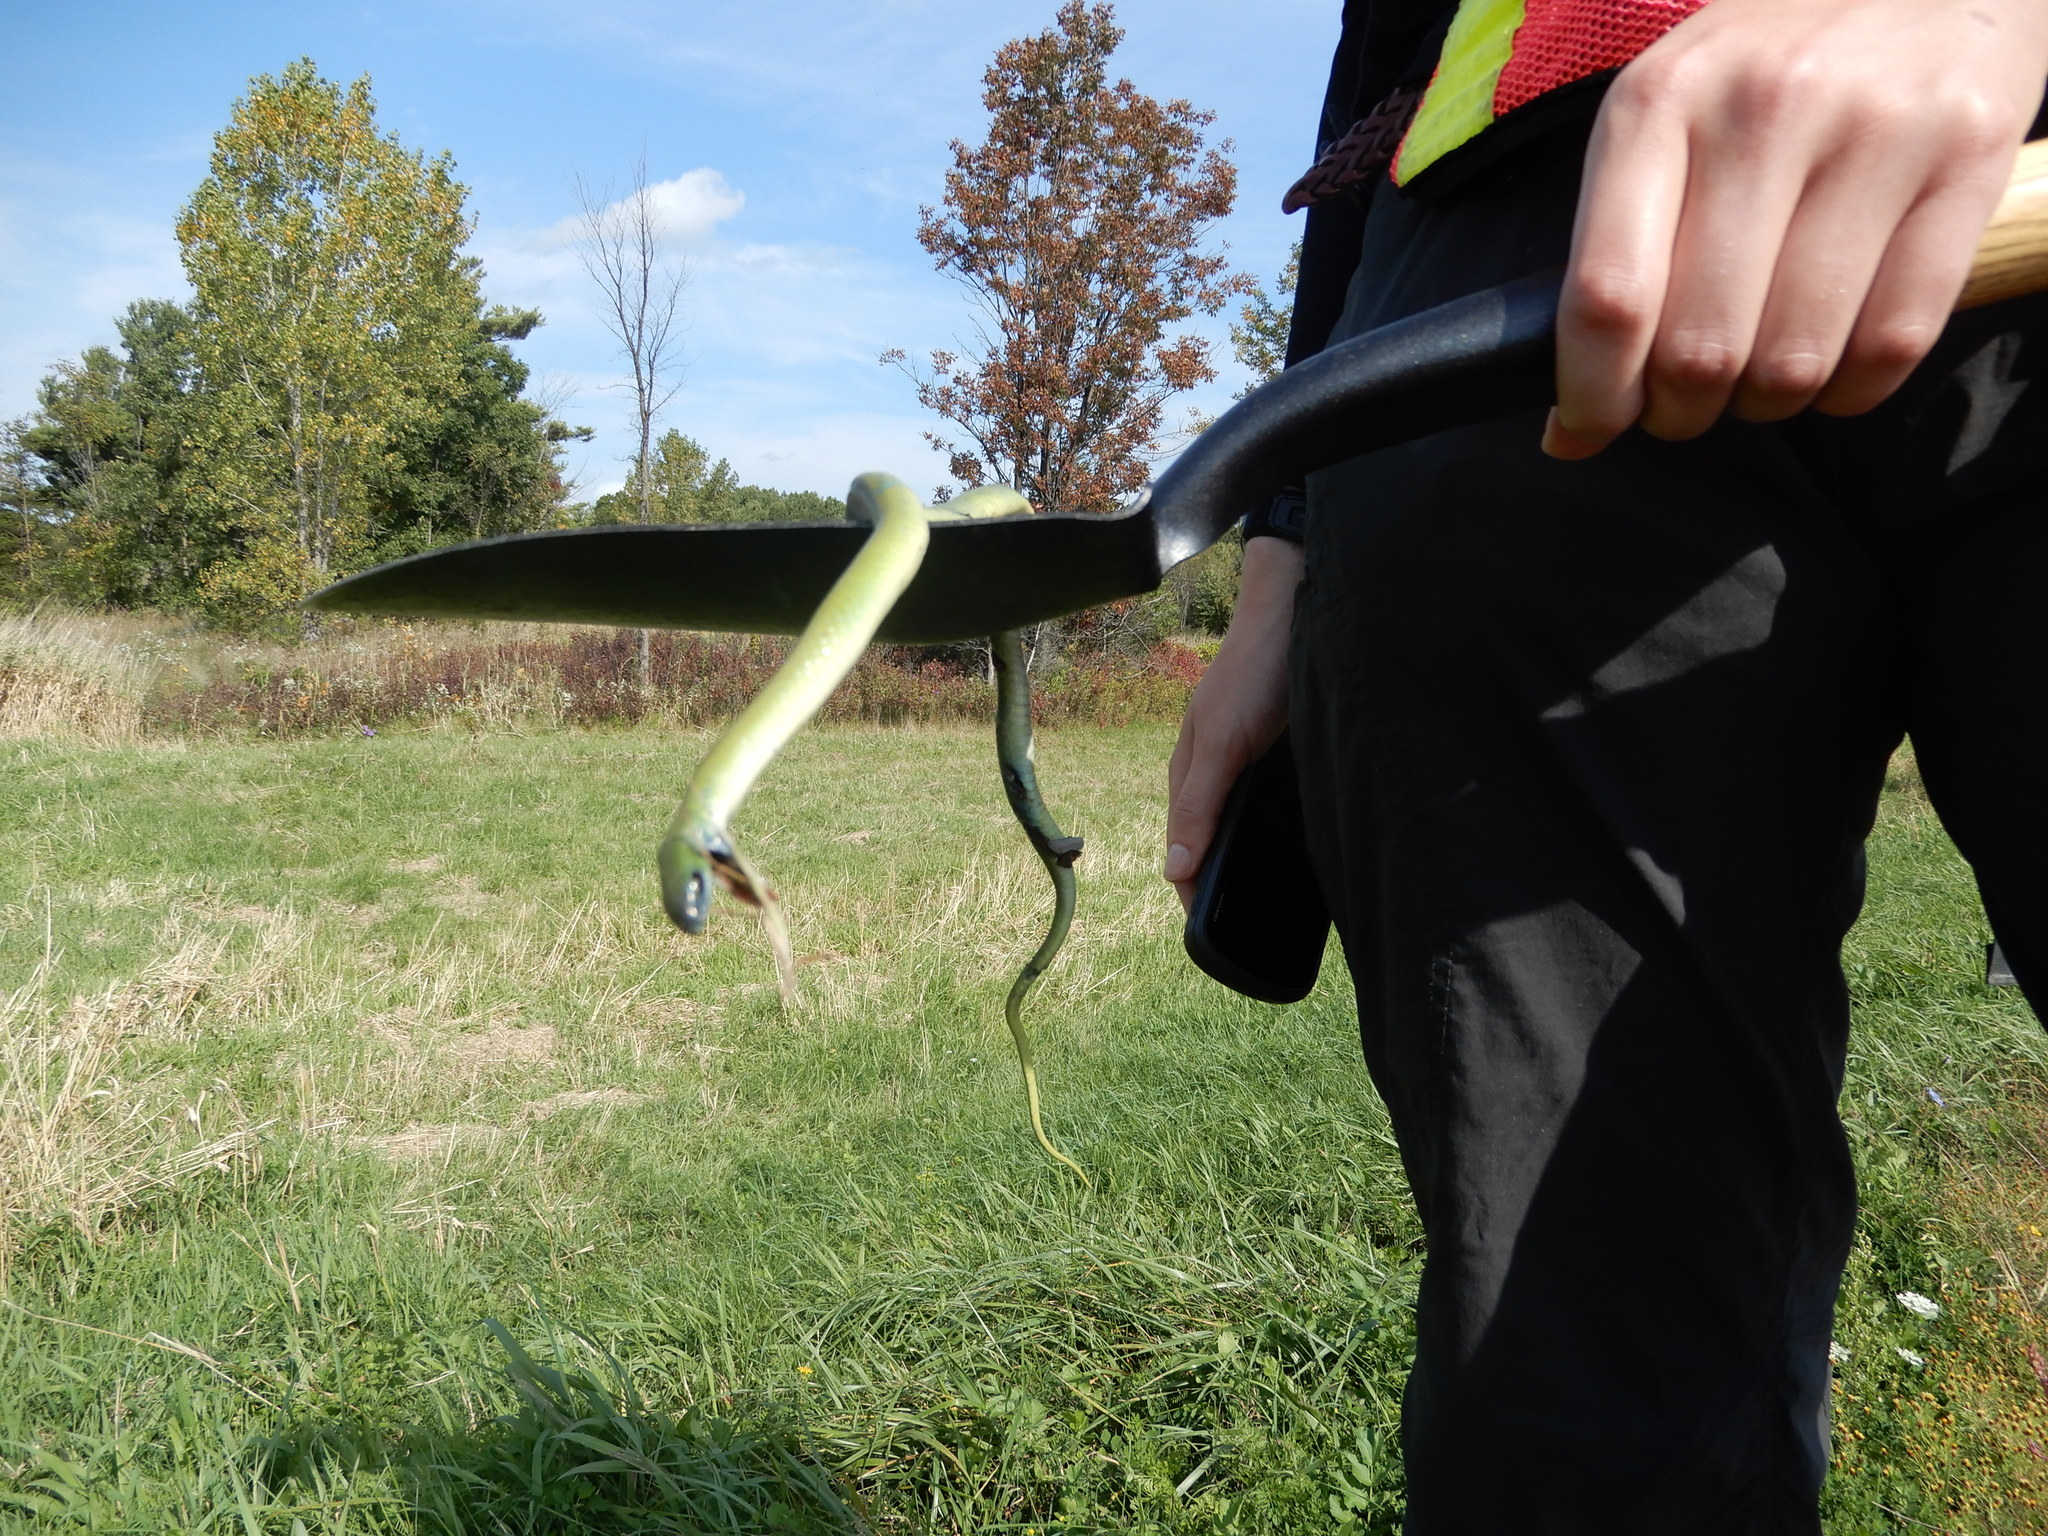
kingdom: Animalia
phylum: Chordata
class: Squamata
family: Colubridae
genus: Opheodrys
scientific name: Opheodrys vernalis
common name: Smooth green snake
